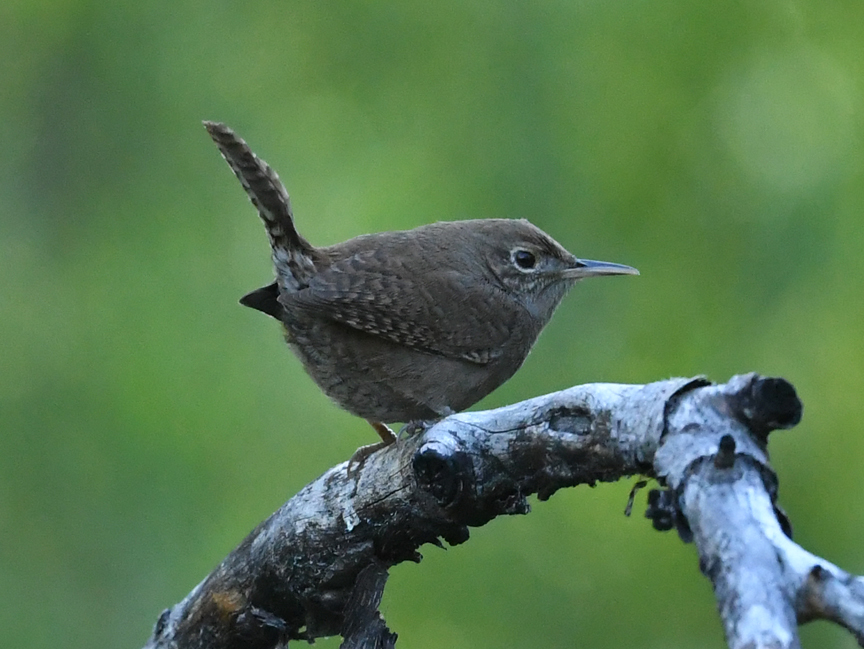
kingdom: Animalia
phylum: Chordata
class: Aves
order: Passeriformes
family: Troglodytidae
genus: Troglodytes
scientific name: Troglodytes aedon
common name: House wren
